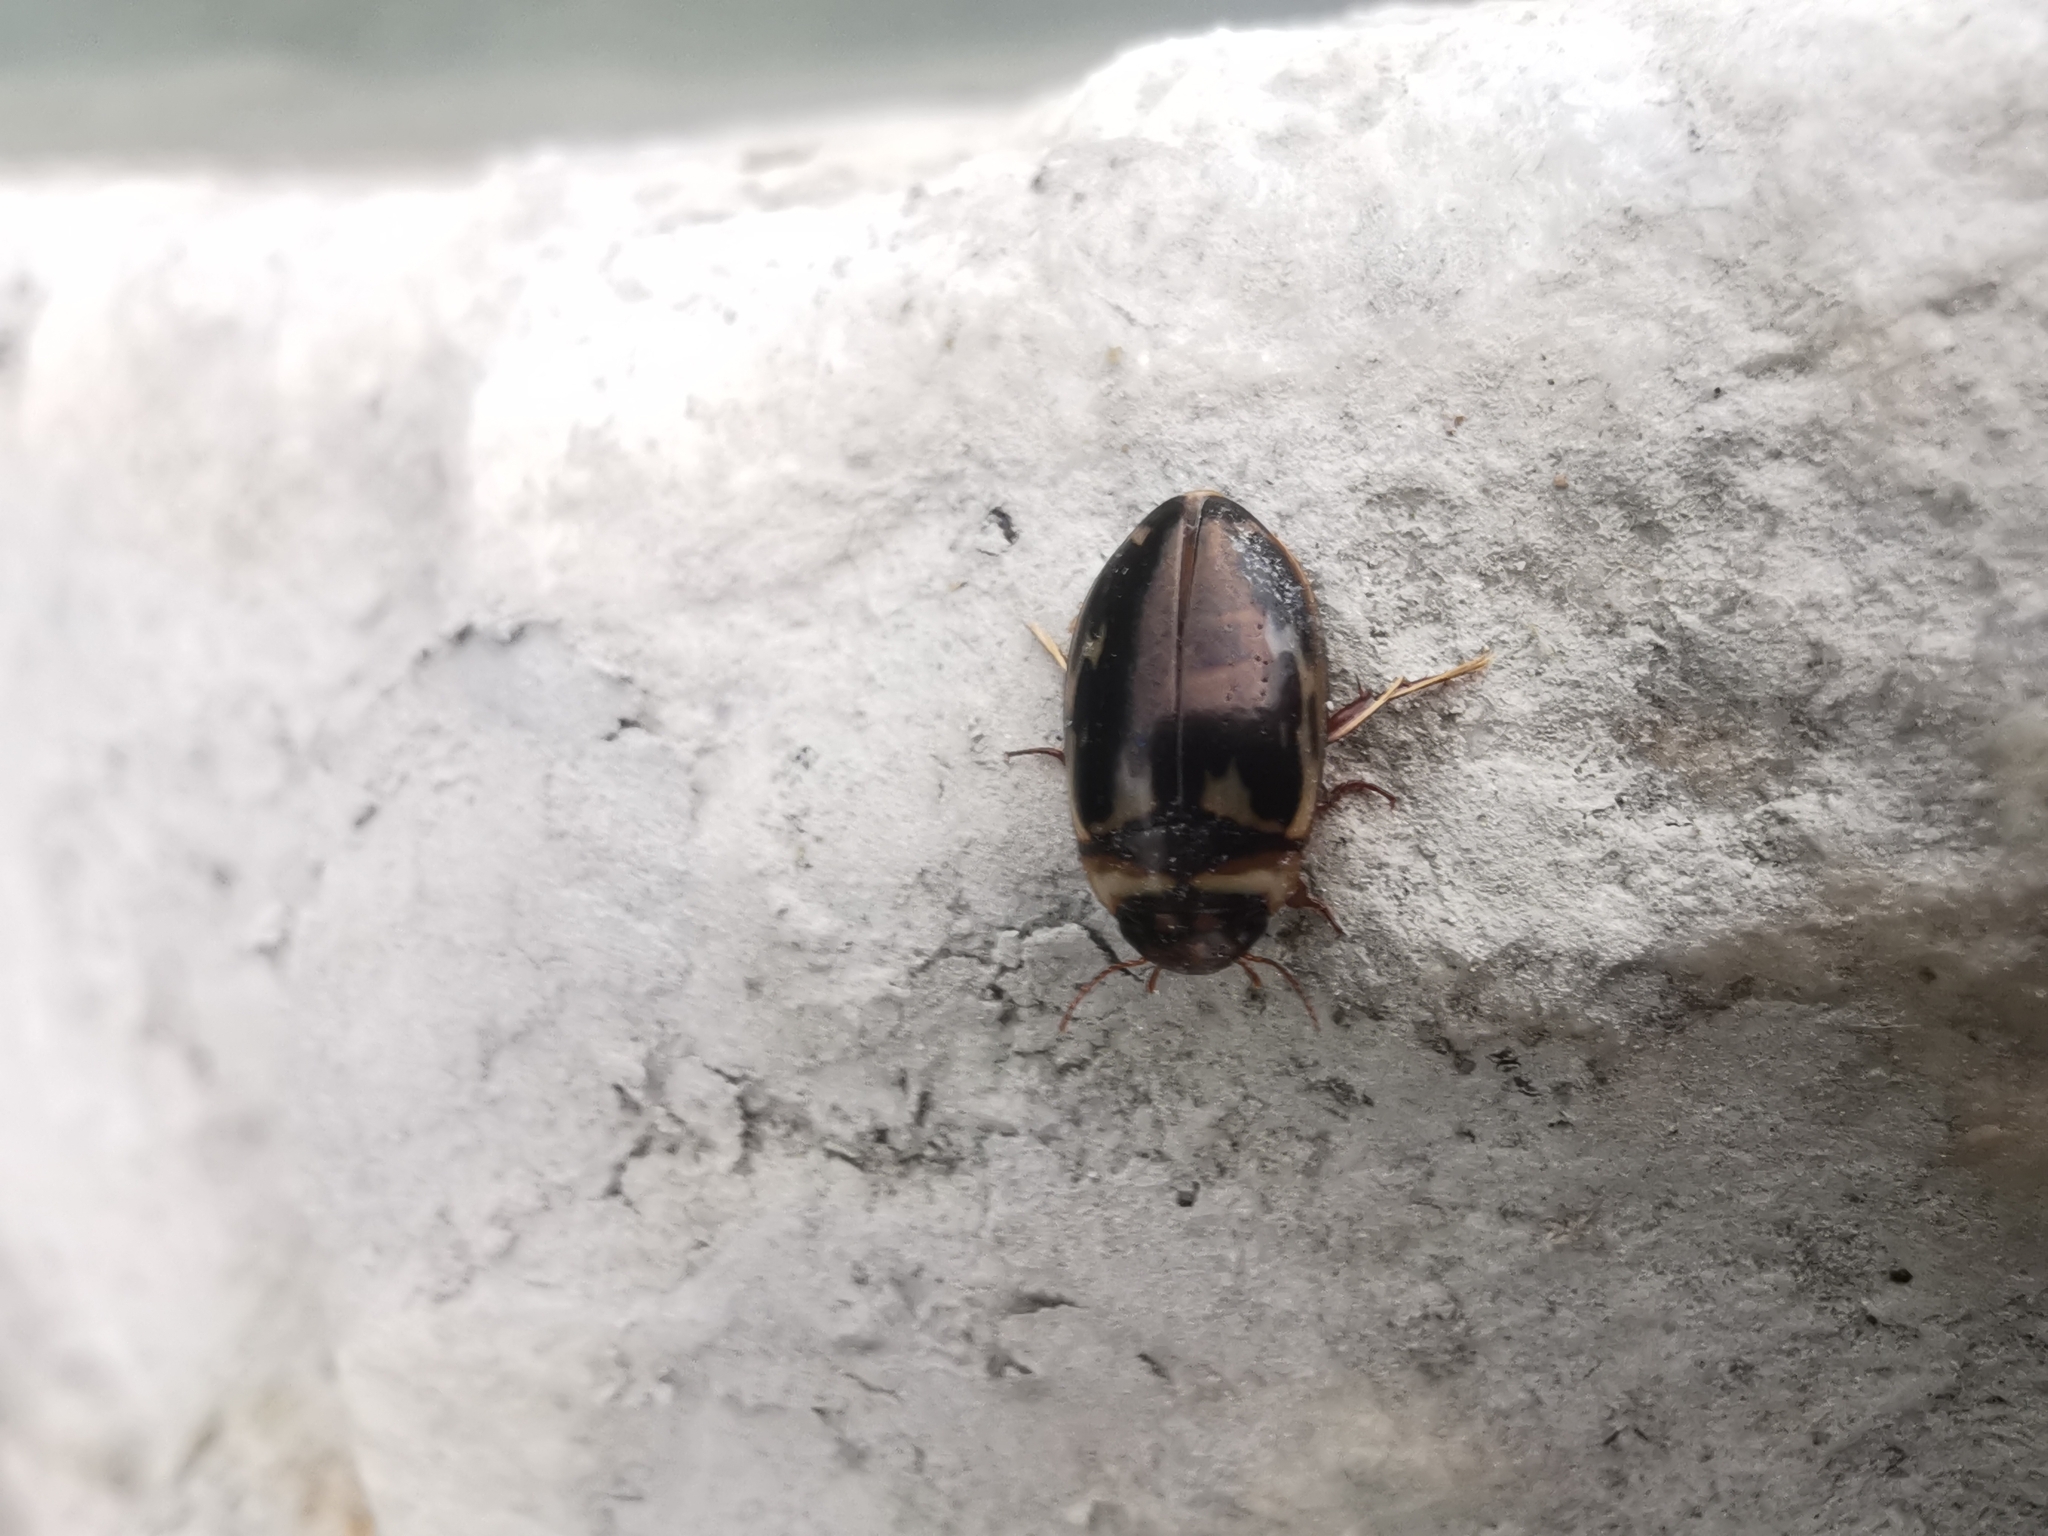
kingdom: Animalia
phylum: Arthropoda
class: Insecta
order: Coleoptera
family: Dytiscidae
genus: Platambus
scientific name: Platambus maculatus
